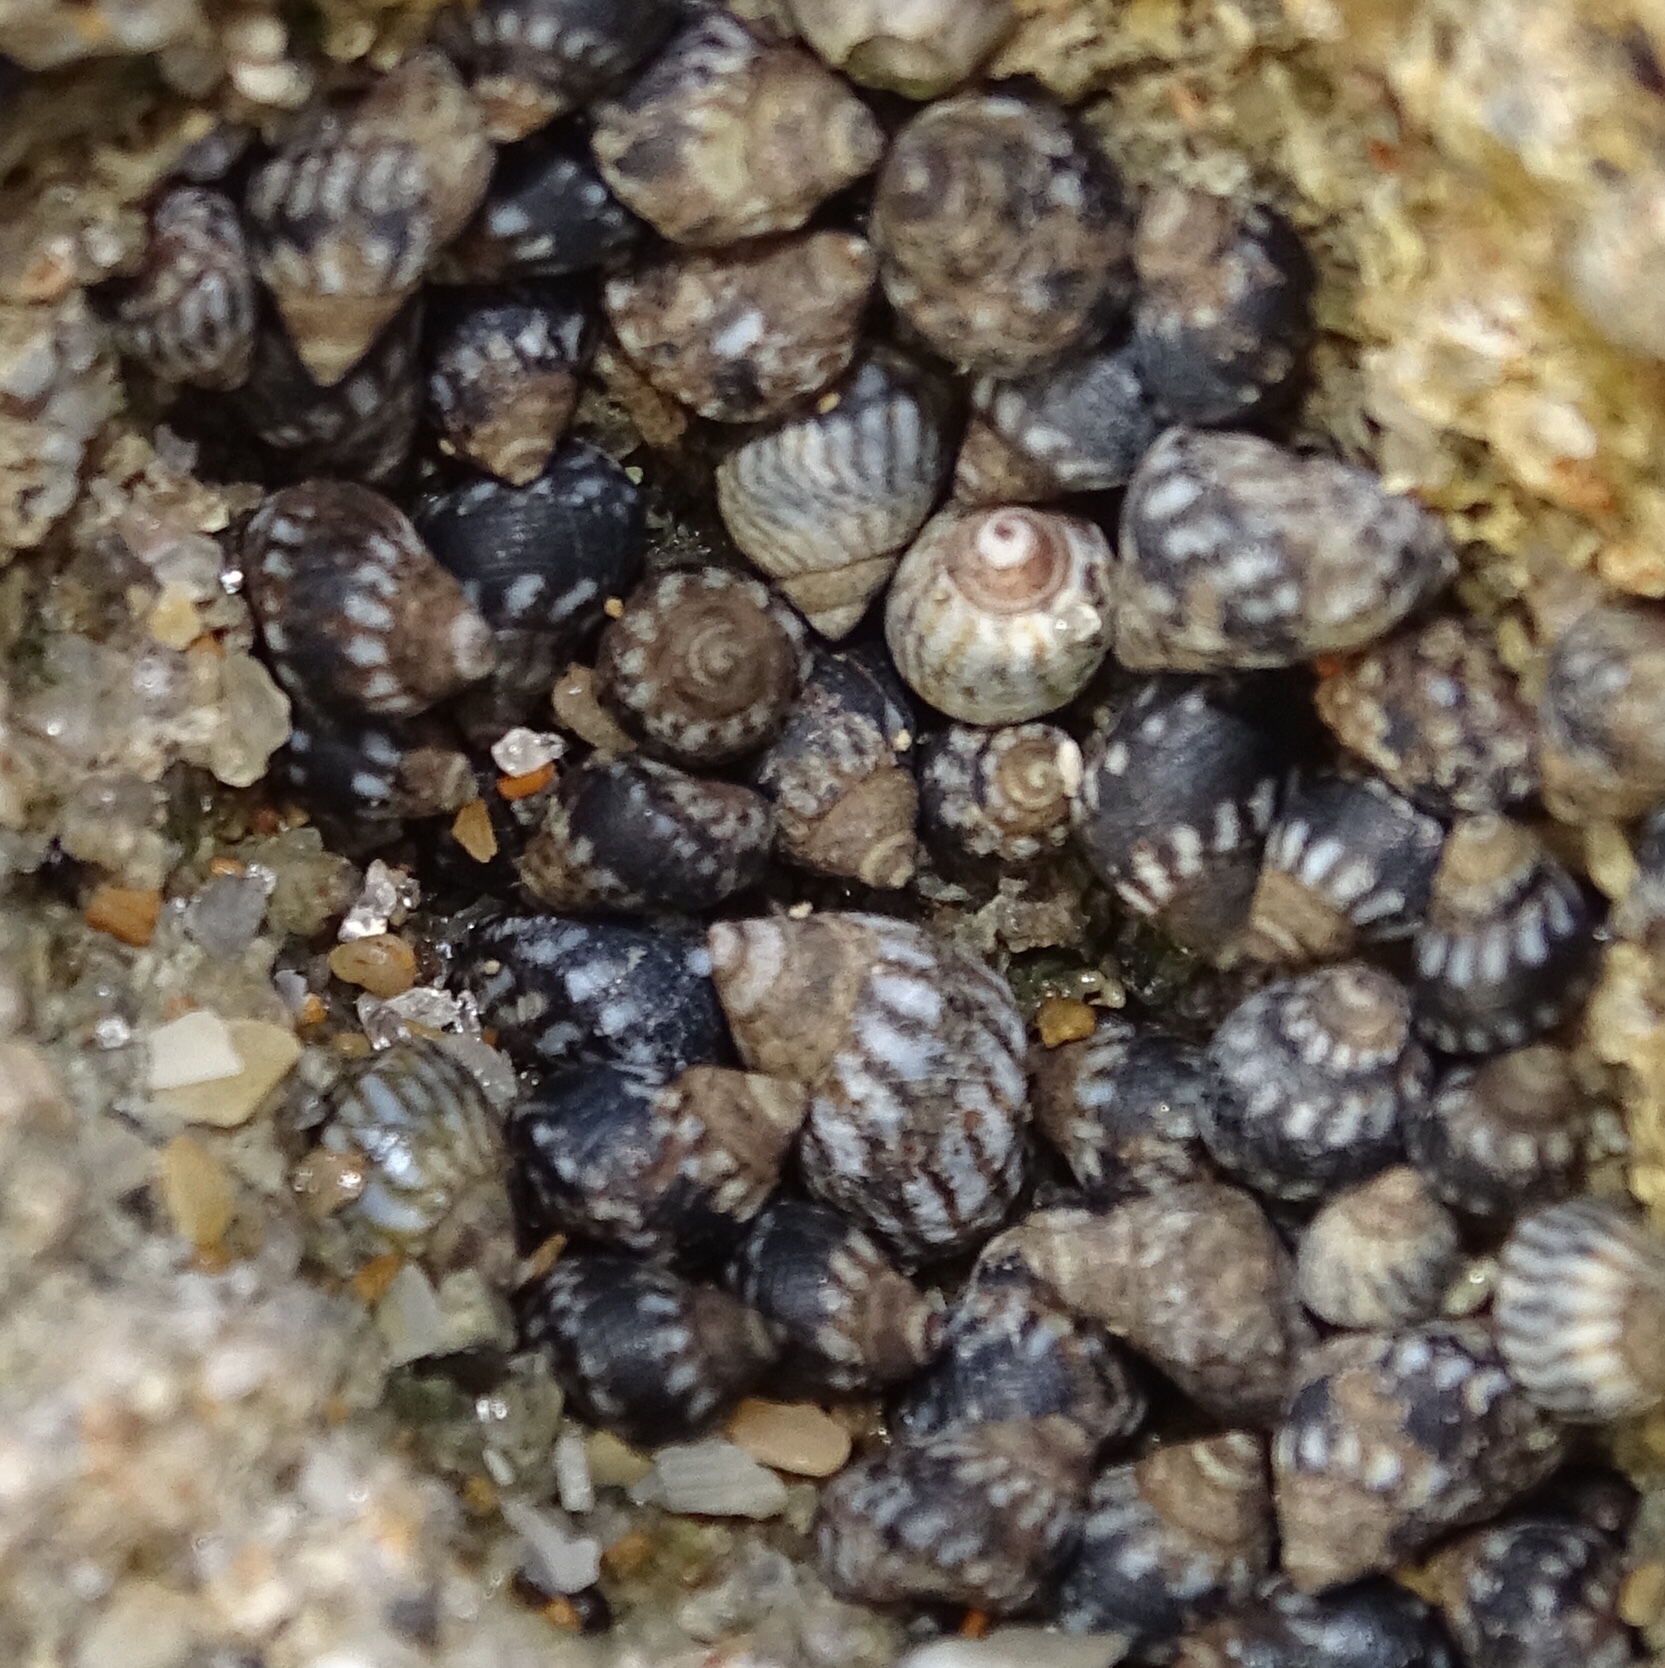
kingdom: Animalia
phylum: Mollusca
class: Gastropoda
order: Littorinimorpha
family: Littorinidae
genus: Echinolittorina
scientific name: Echinolittorina placida
